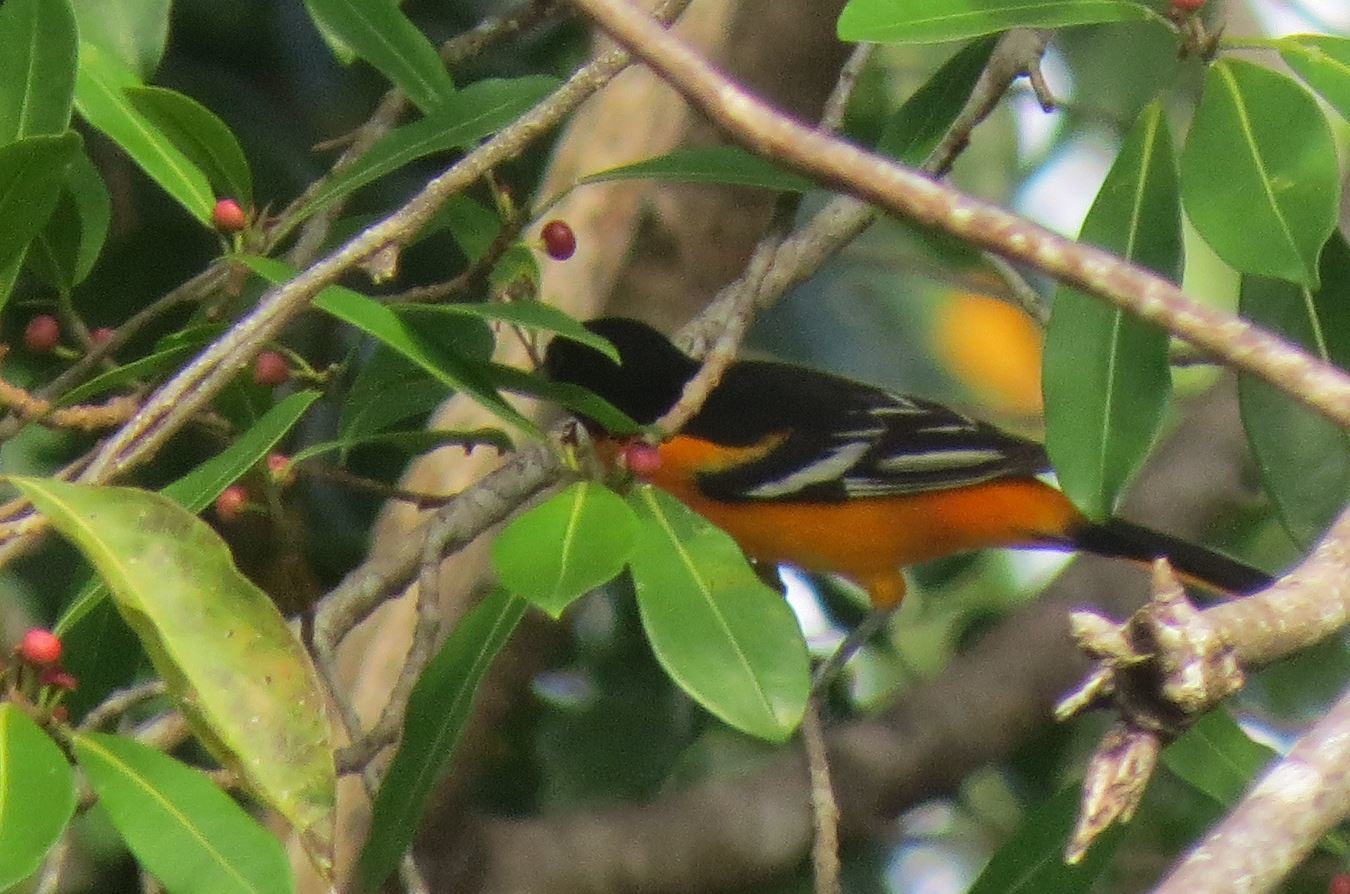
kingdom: Animalia
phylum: Chordata
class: Aves
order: Passeriformes
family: Icteridae
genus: Icterus
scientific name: Icterus galbula
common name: Baltimore oriole
